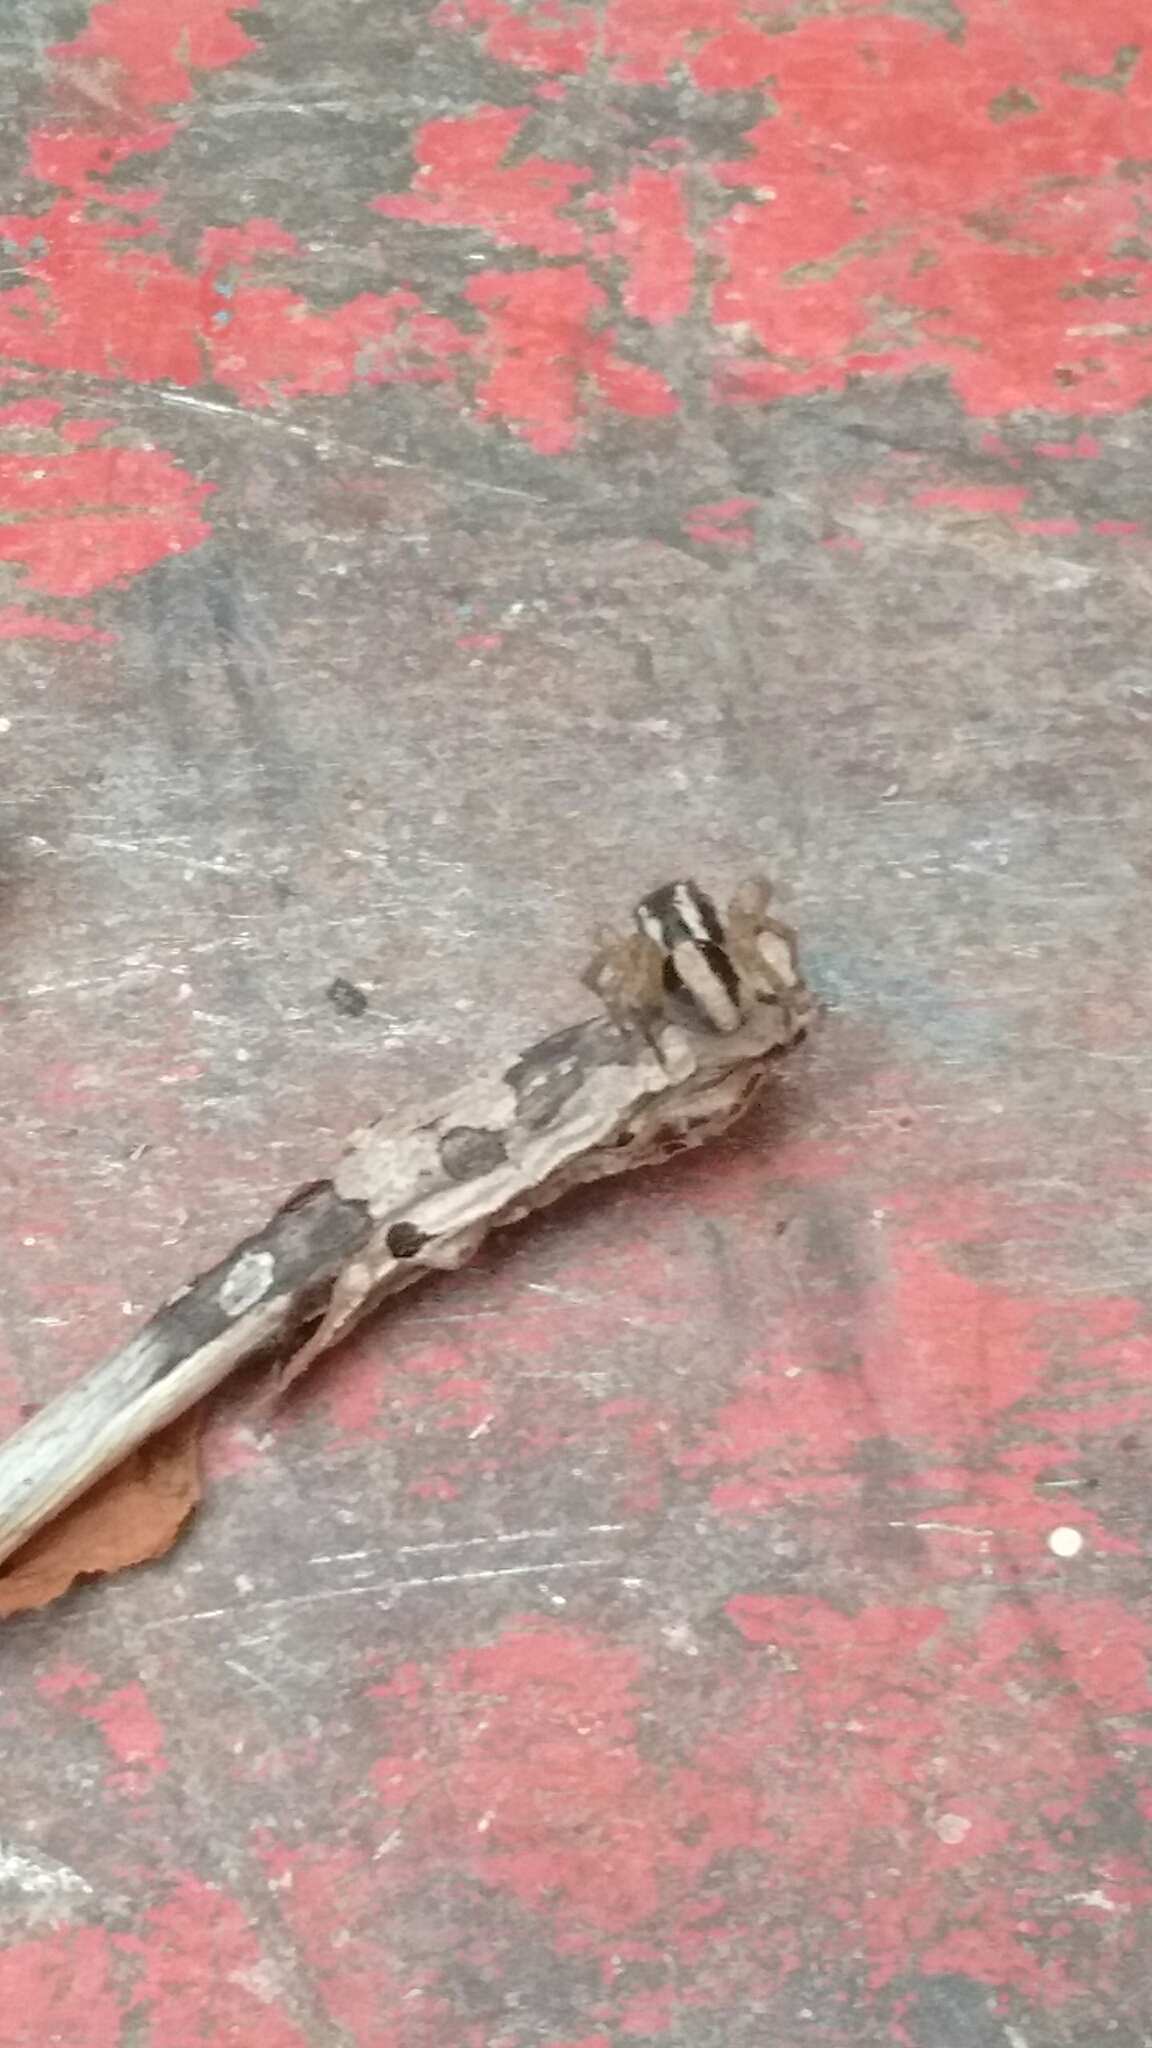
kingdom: Animalia
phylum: Arthropoda
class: Arachnida
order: Araneae
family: Salticidae
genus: Aphirape
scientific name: Aphirape
